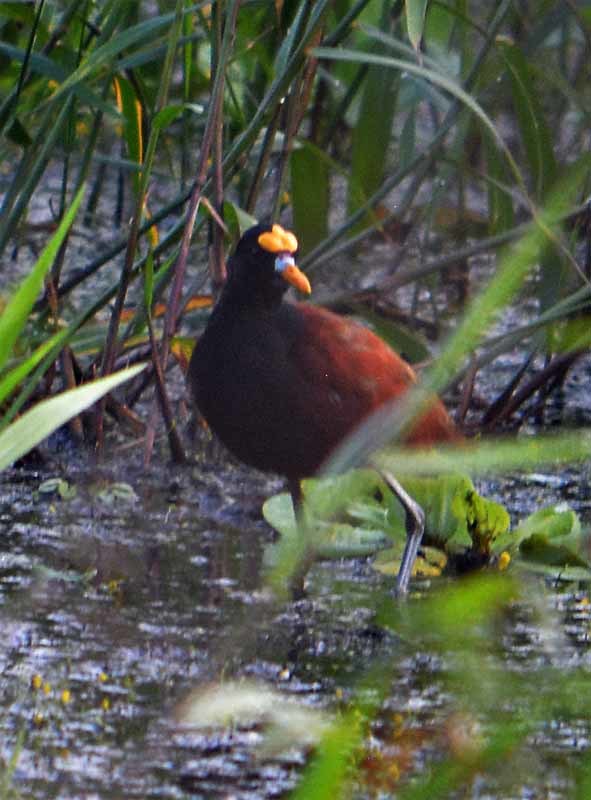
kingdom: Animalia
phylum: Chordata
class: Aves
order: Charadriiformes
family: Jacanidae
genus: Jacana
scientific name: Jacana spinosa
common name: Northern jacana
